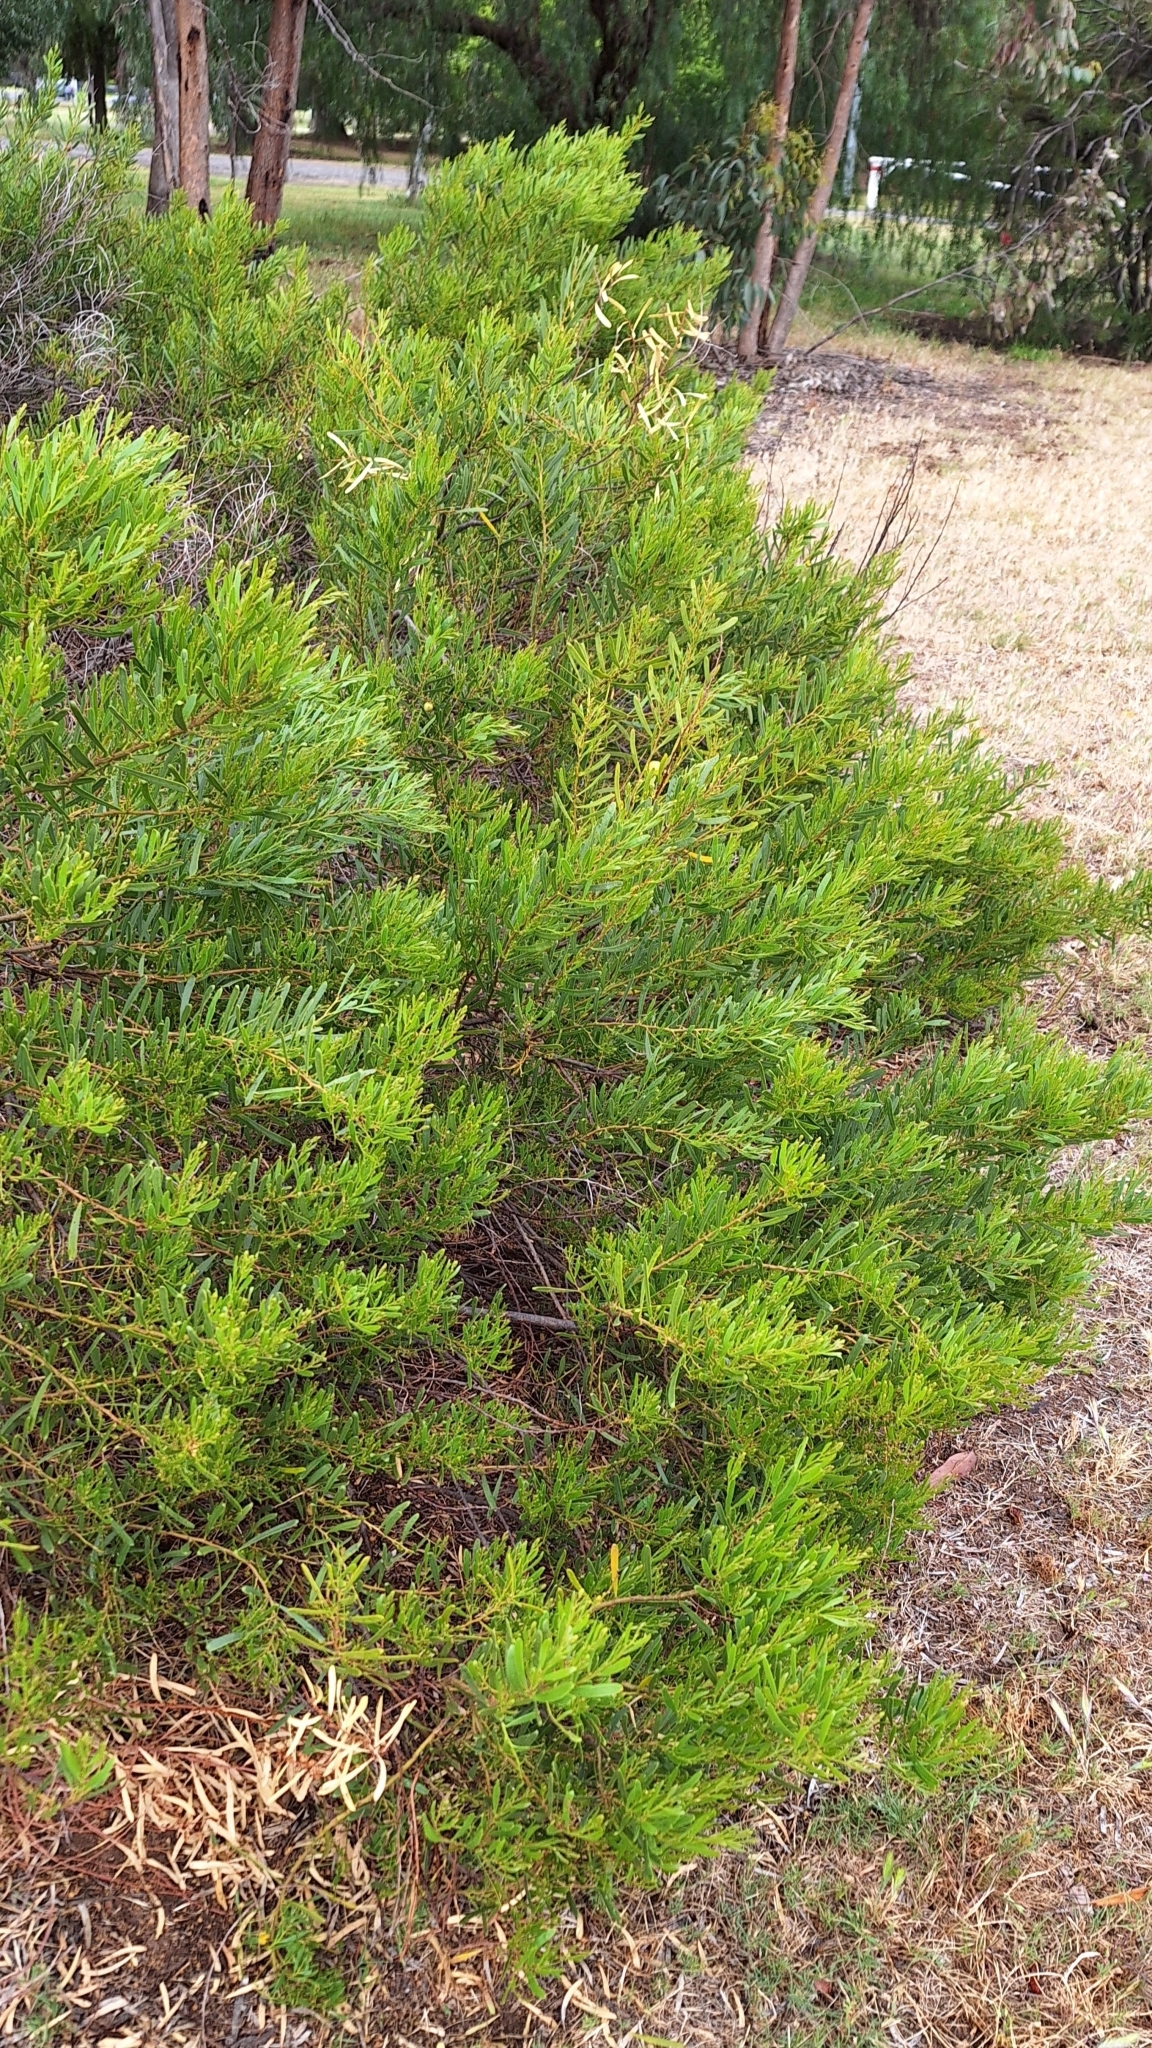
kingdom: Plantae
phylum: Tracheophyta
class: Magnoliopsida
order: Fabales
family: Fabaceae
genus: Acacia
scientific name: Acacia ligulata
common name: Dune wattle
